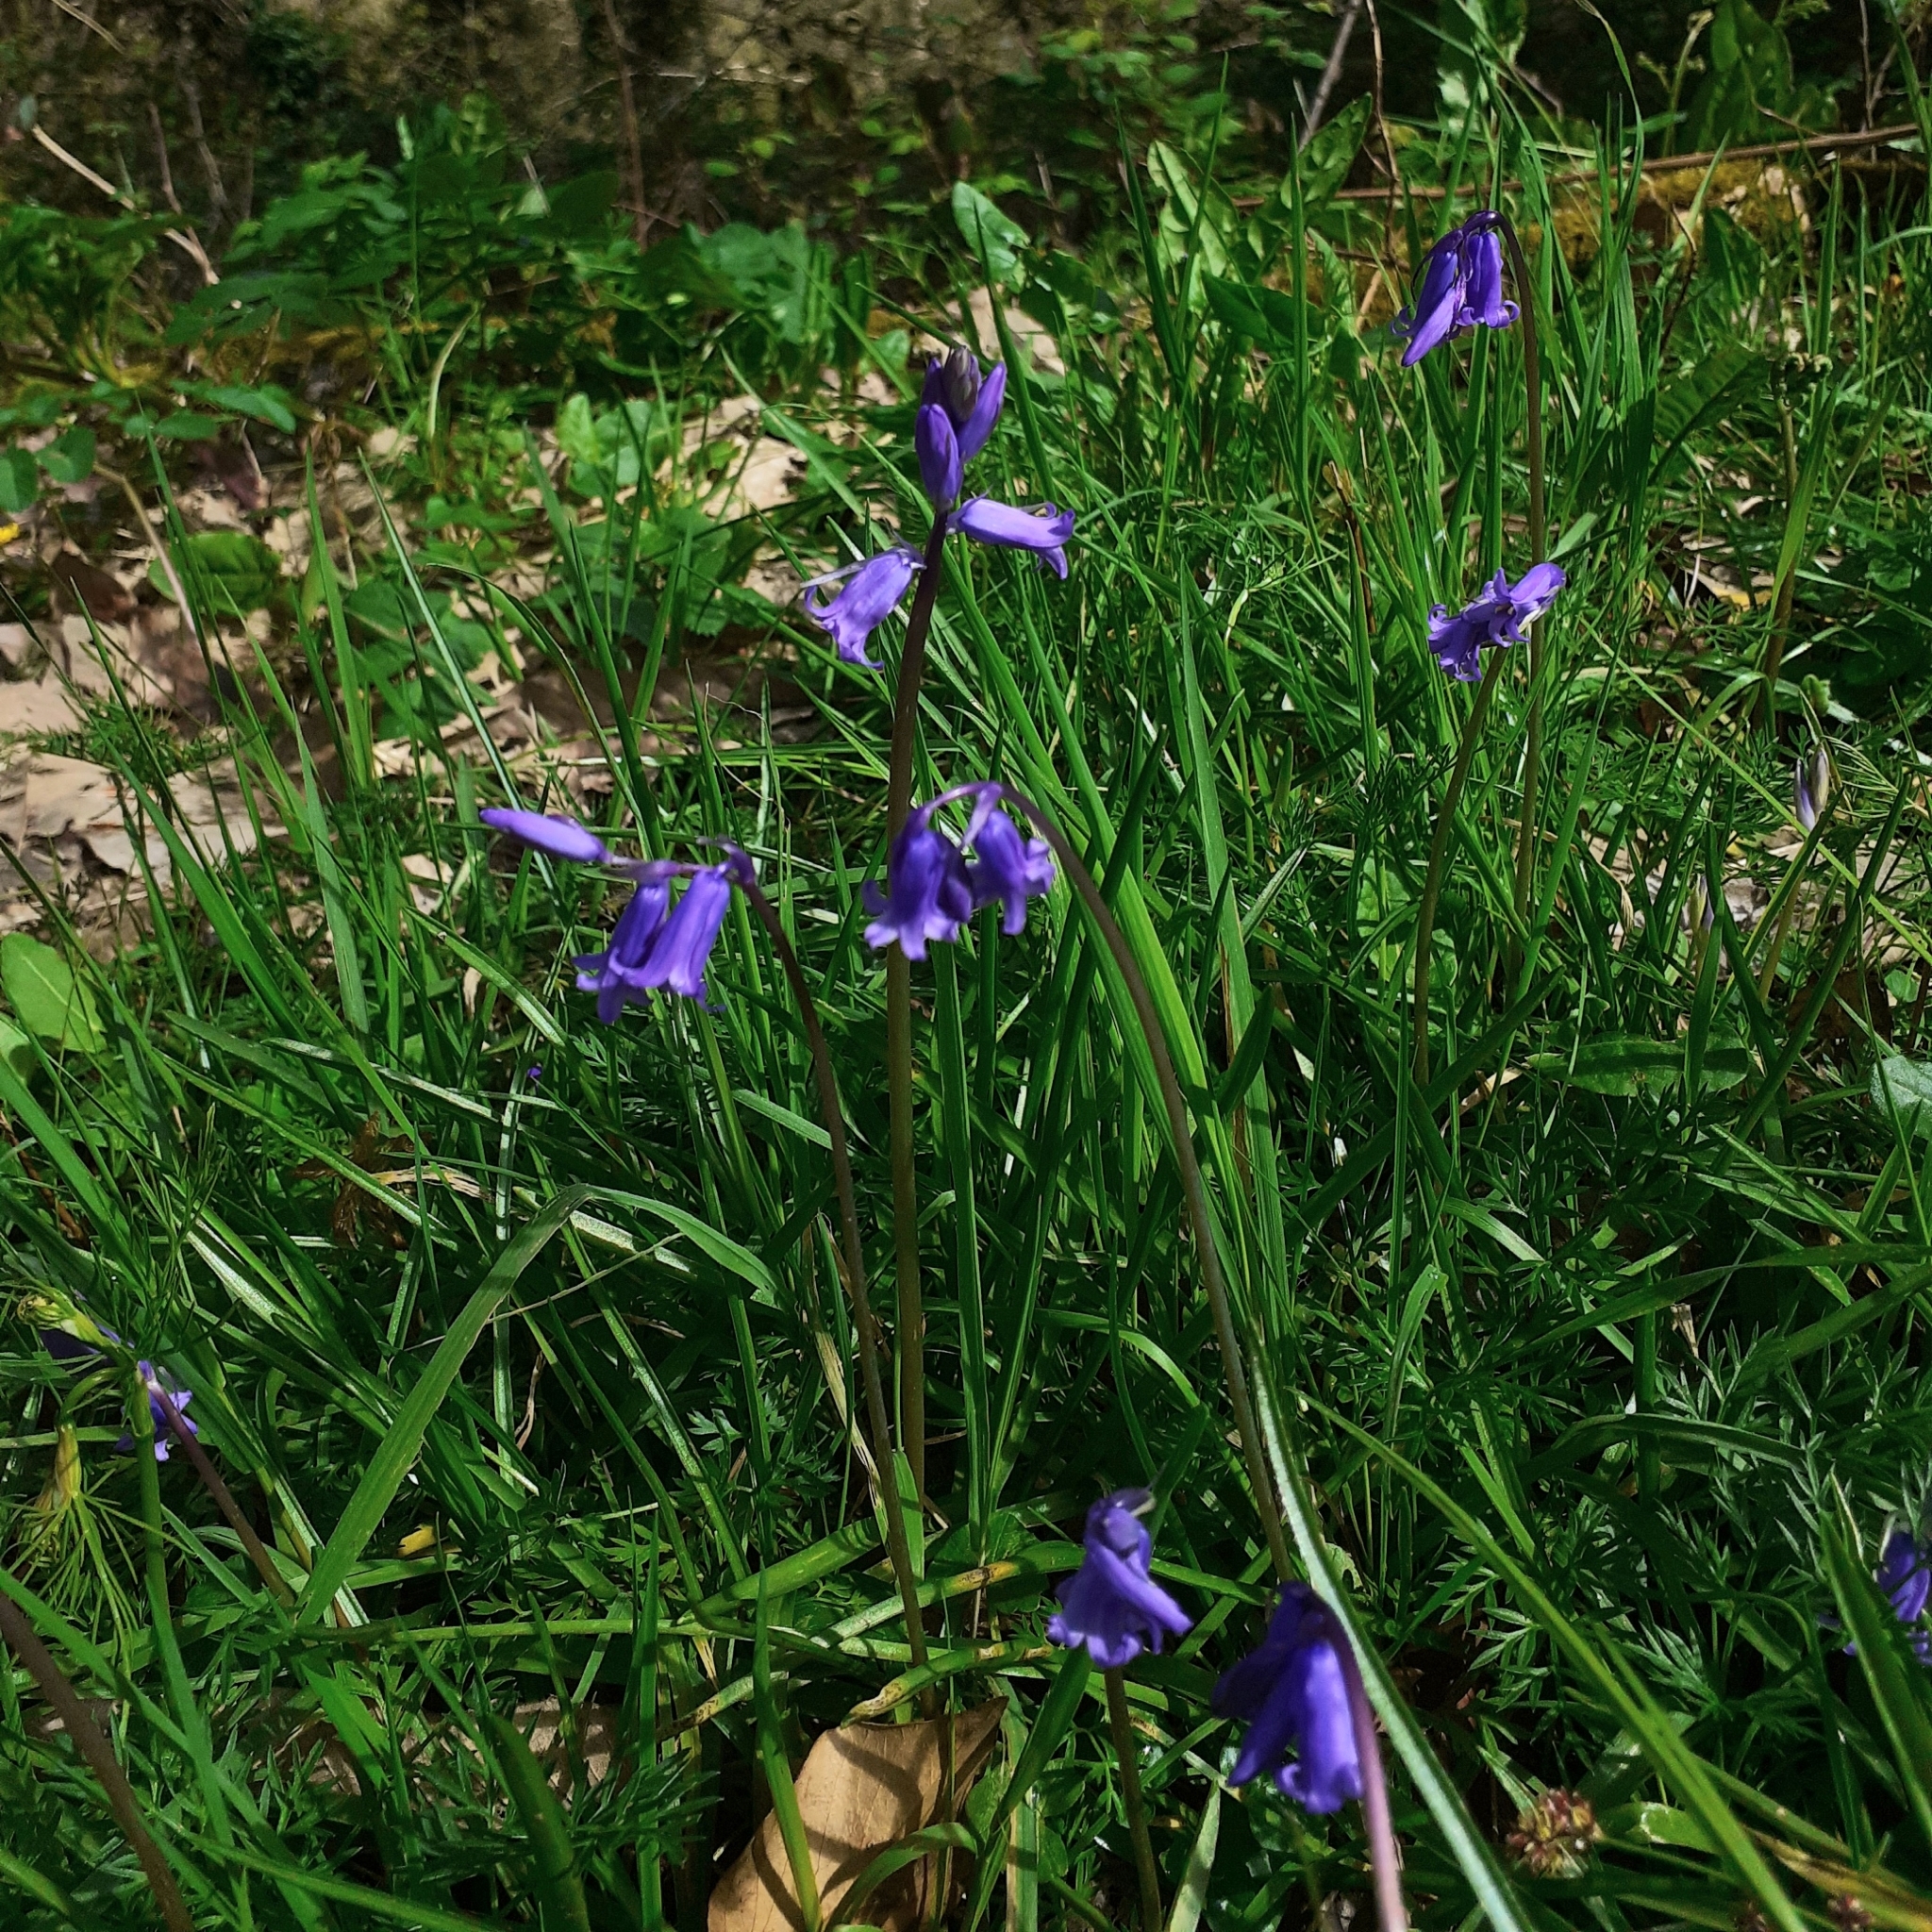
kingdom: Plantae
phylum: Tracheophyta
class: Liliopsida
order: Asparagales
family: Asparagaceae
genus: Hyacinthoides
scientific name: Hyacinthoides non-scripta
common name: Bluebell
